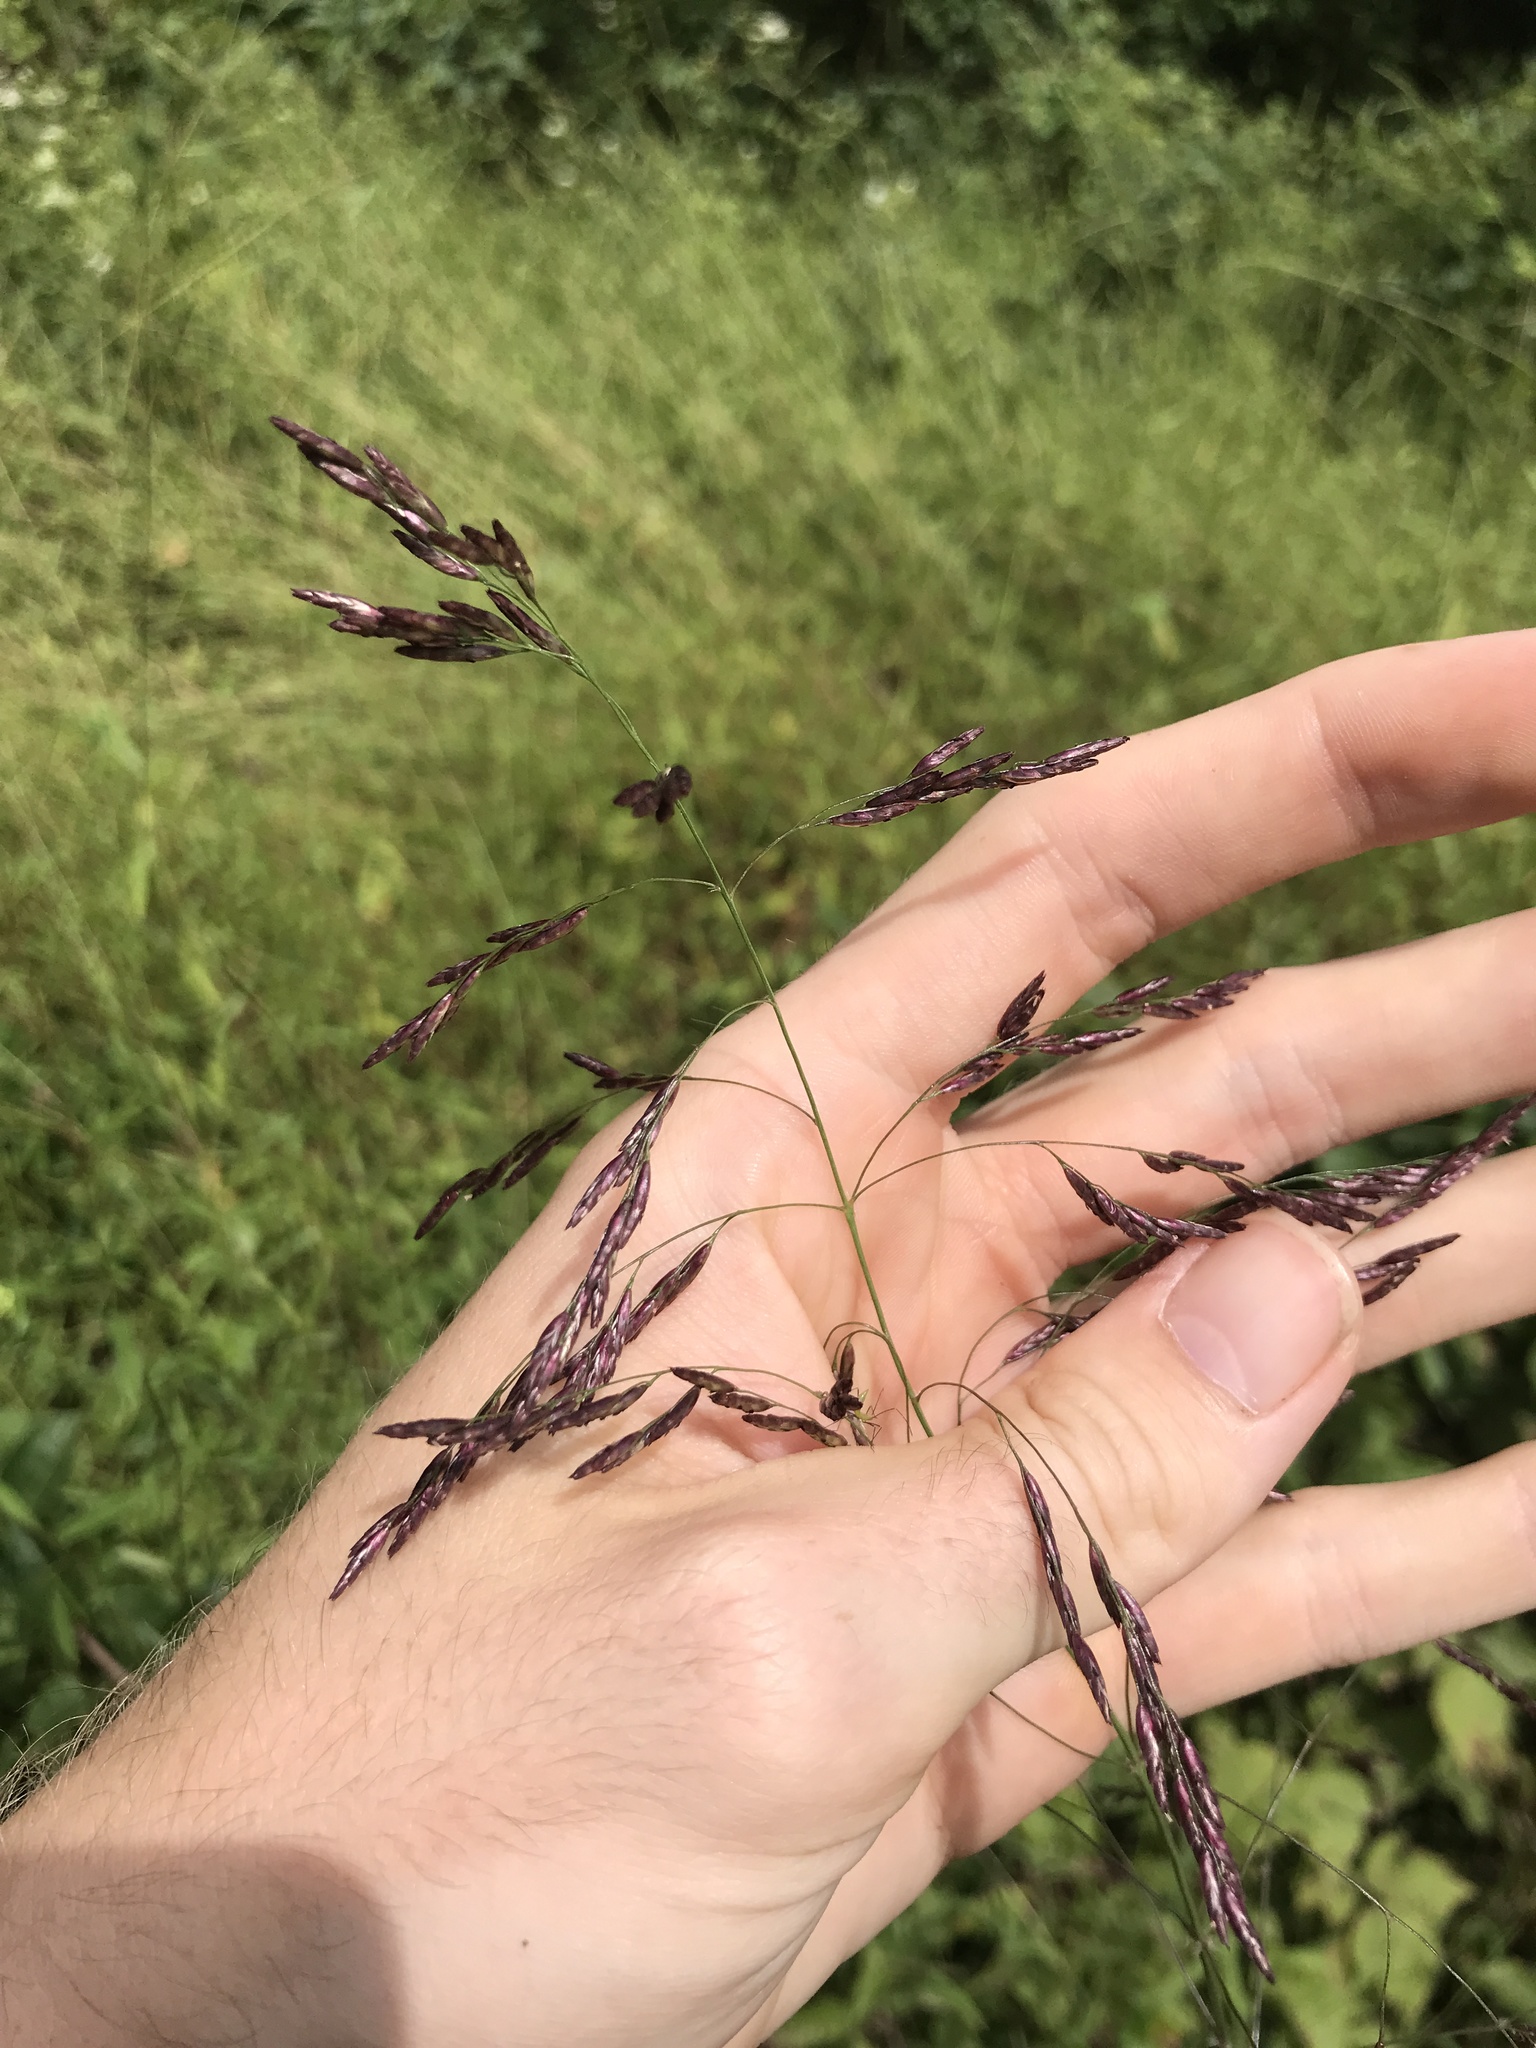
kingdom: Plantae
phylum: Tracheophyta
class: Liliopsida
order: Poales
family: Poaceae
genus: Tridens
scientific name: Tridens flavus
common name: Purpletop
